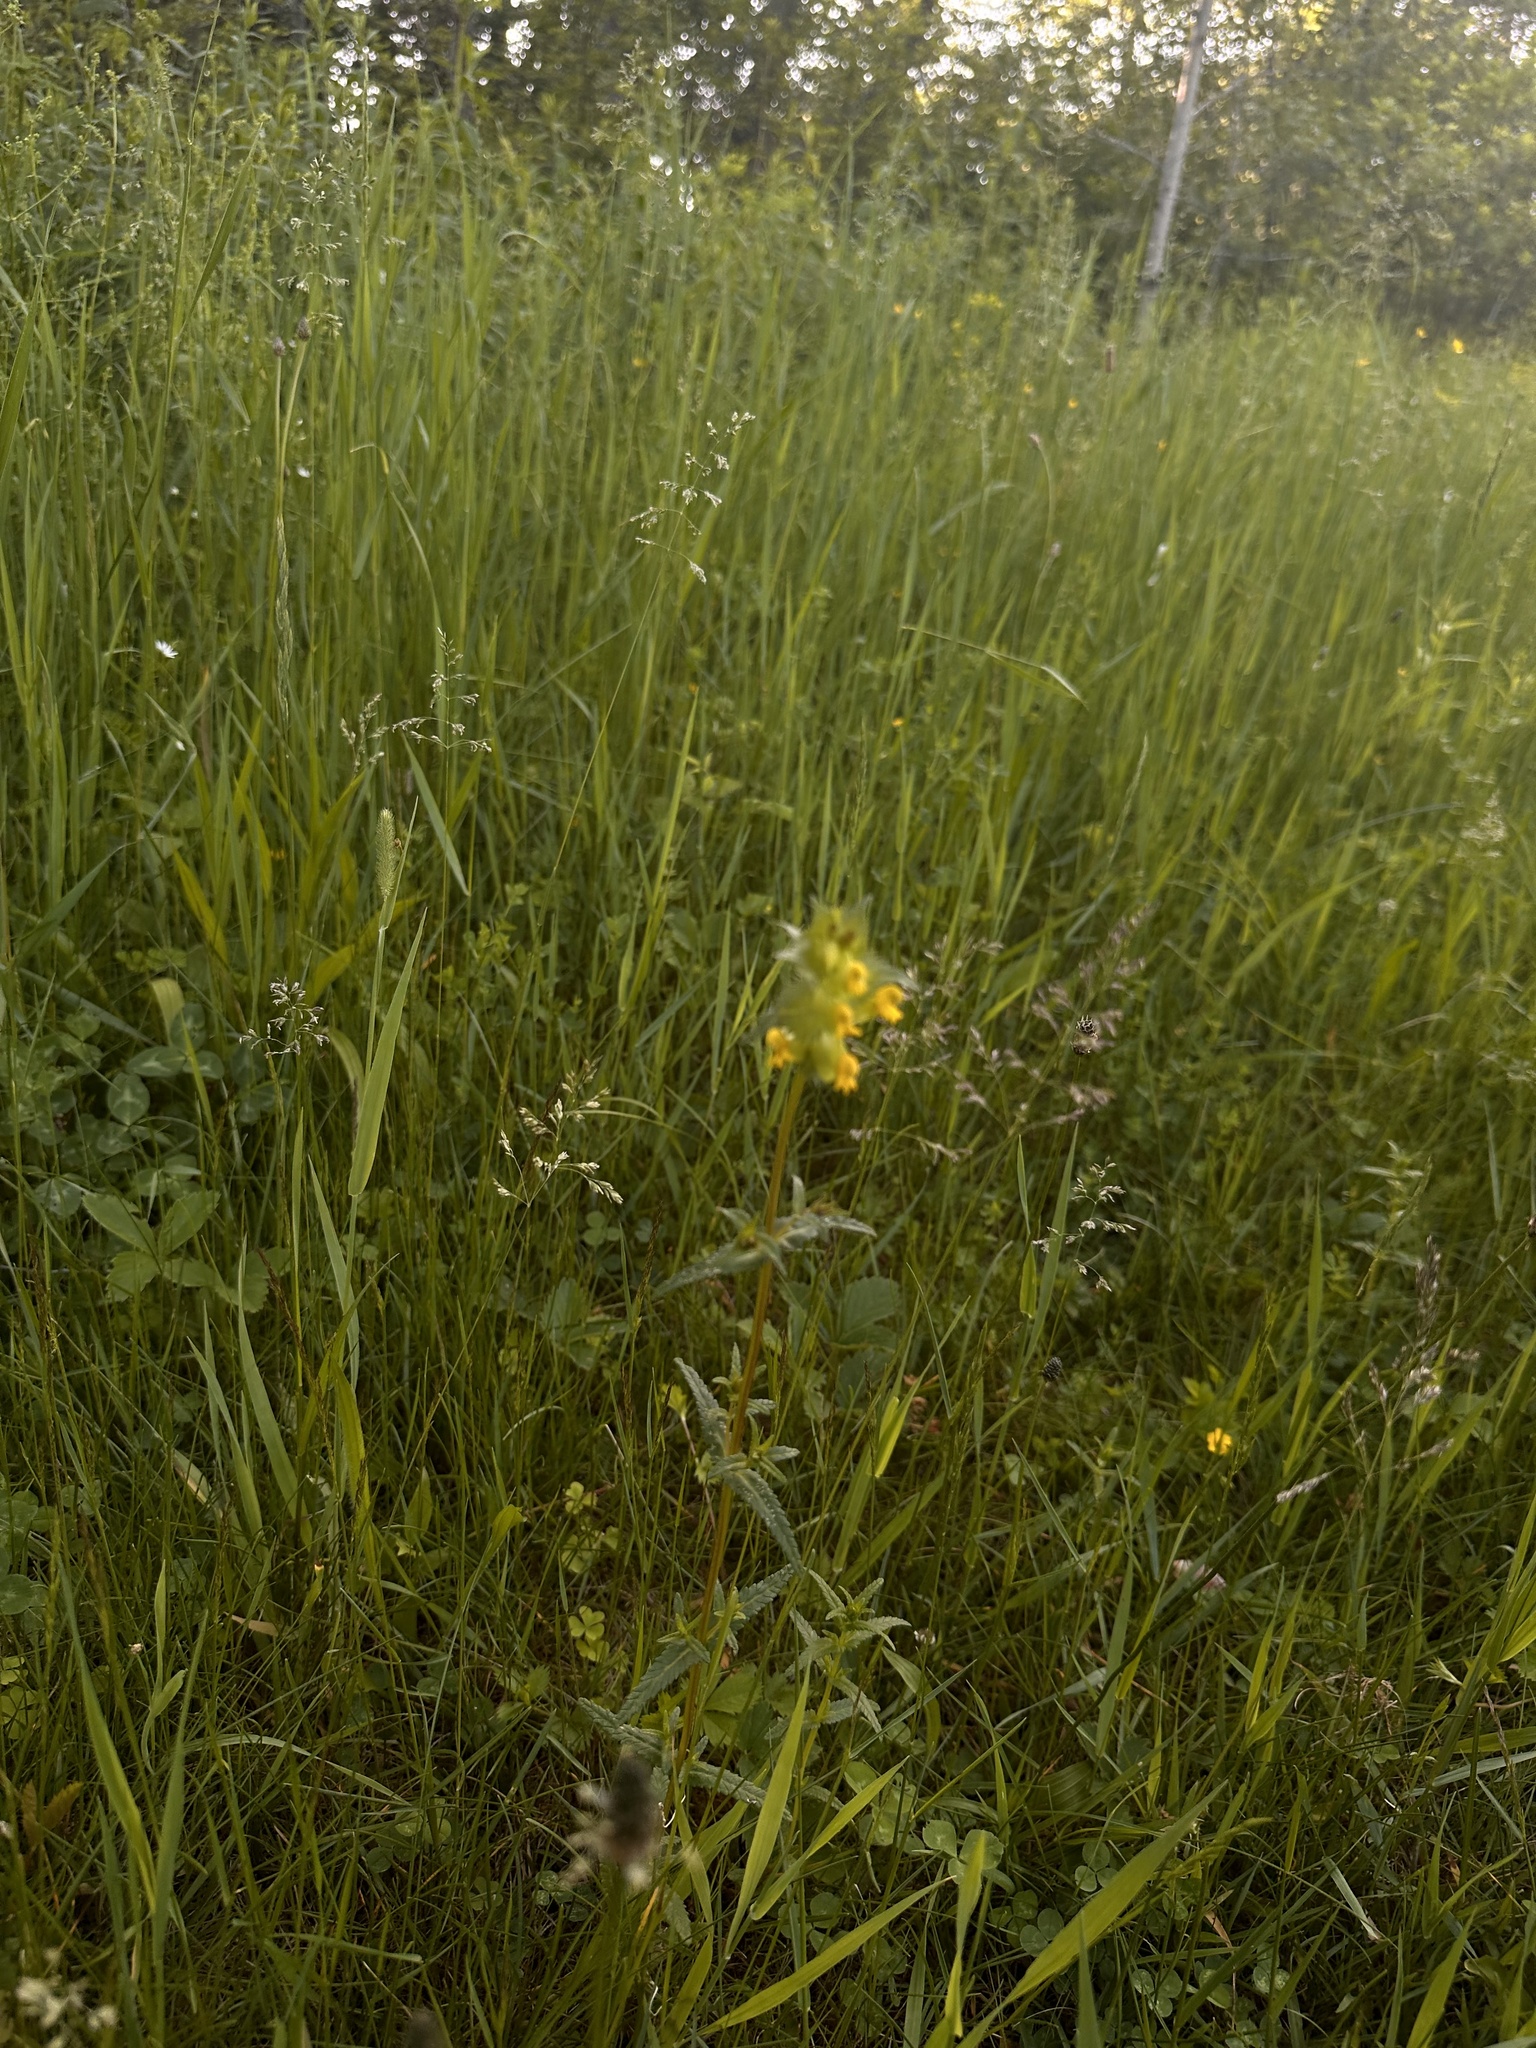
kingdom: Plantae
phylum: Tracheophyta
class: Magnoliopsida
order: Lamiales
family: Orobanchaceae
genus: Rhinanthus
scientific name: Rhinanthus minor
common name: Yellow-rattle
